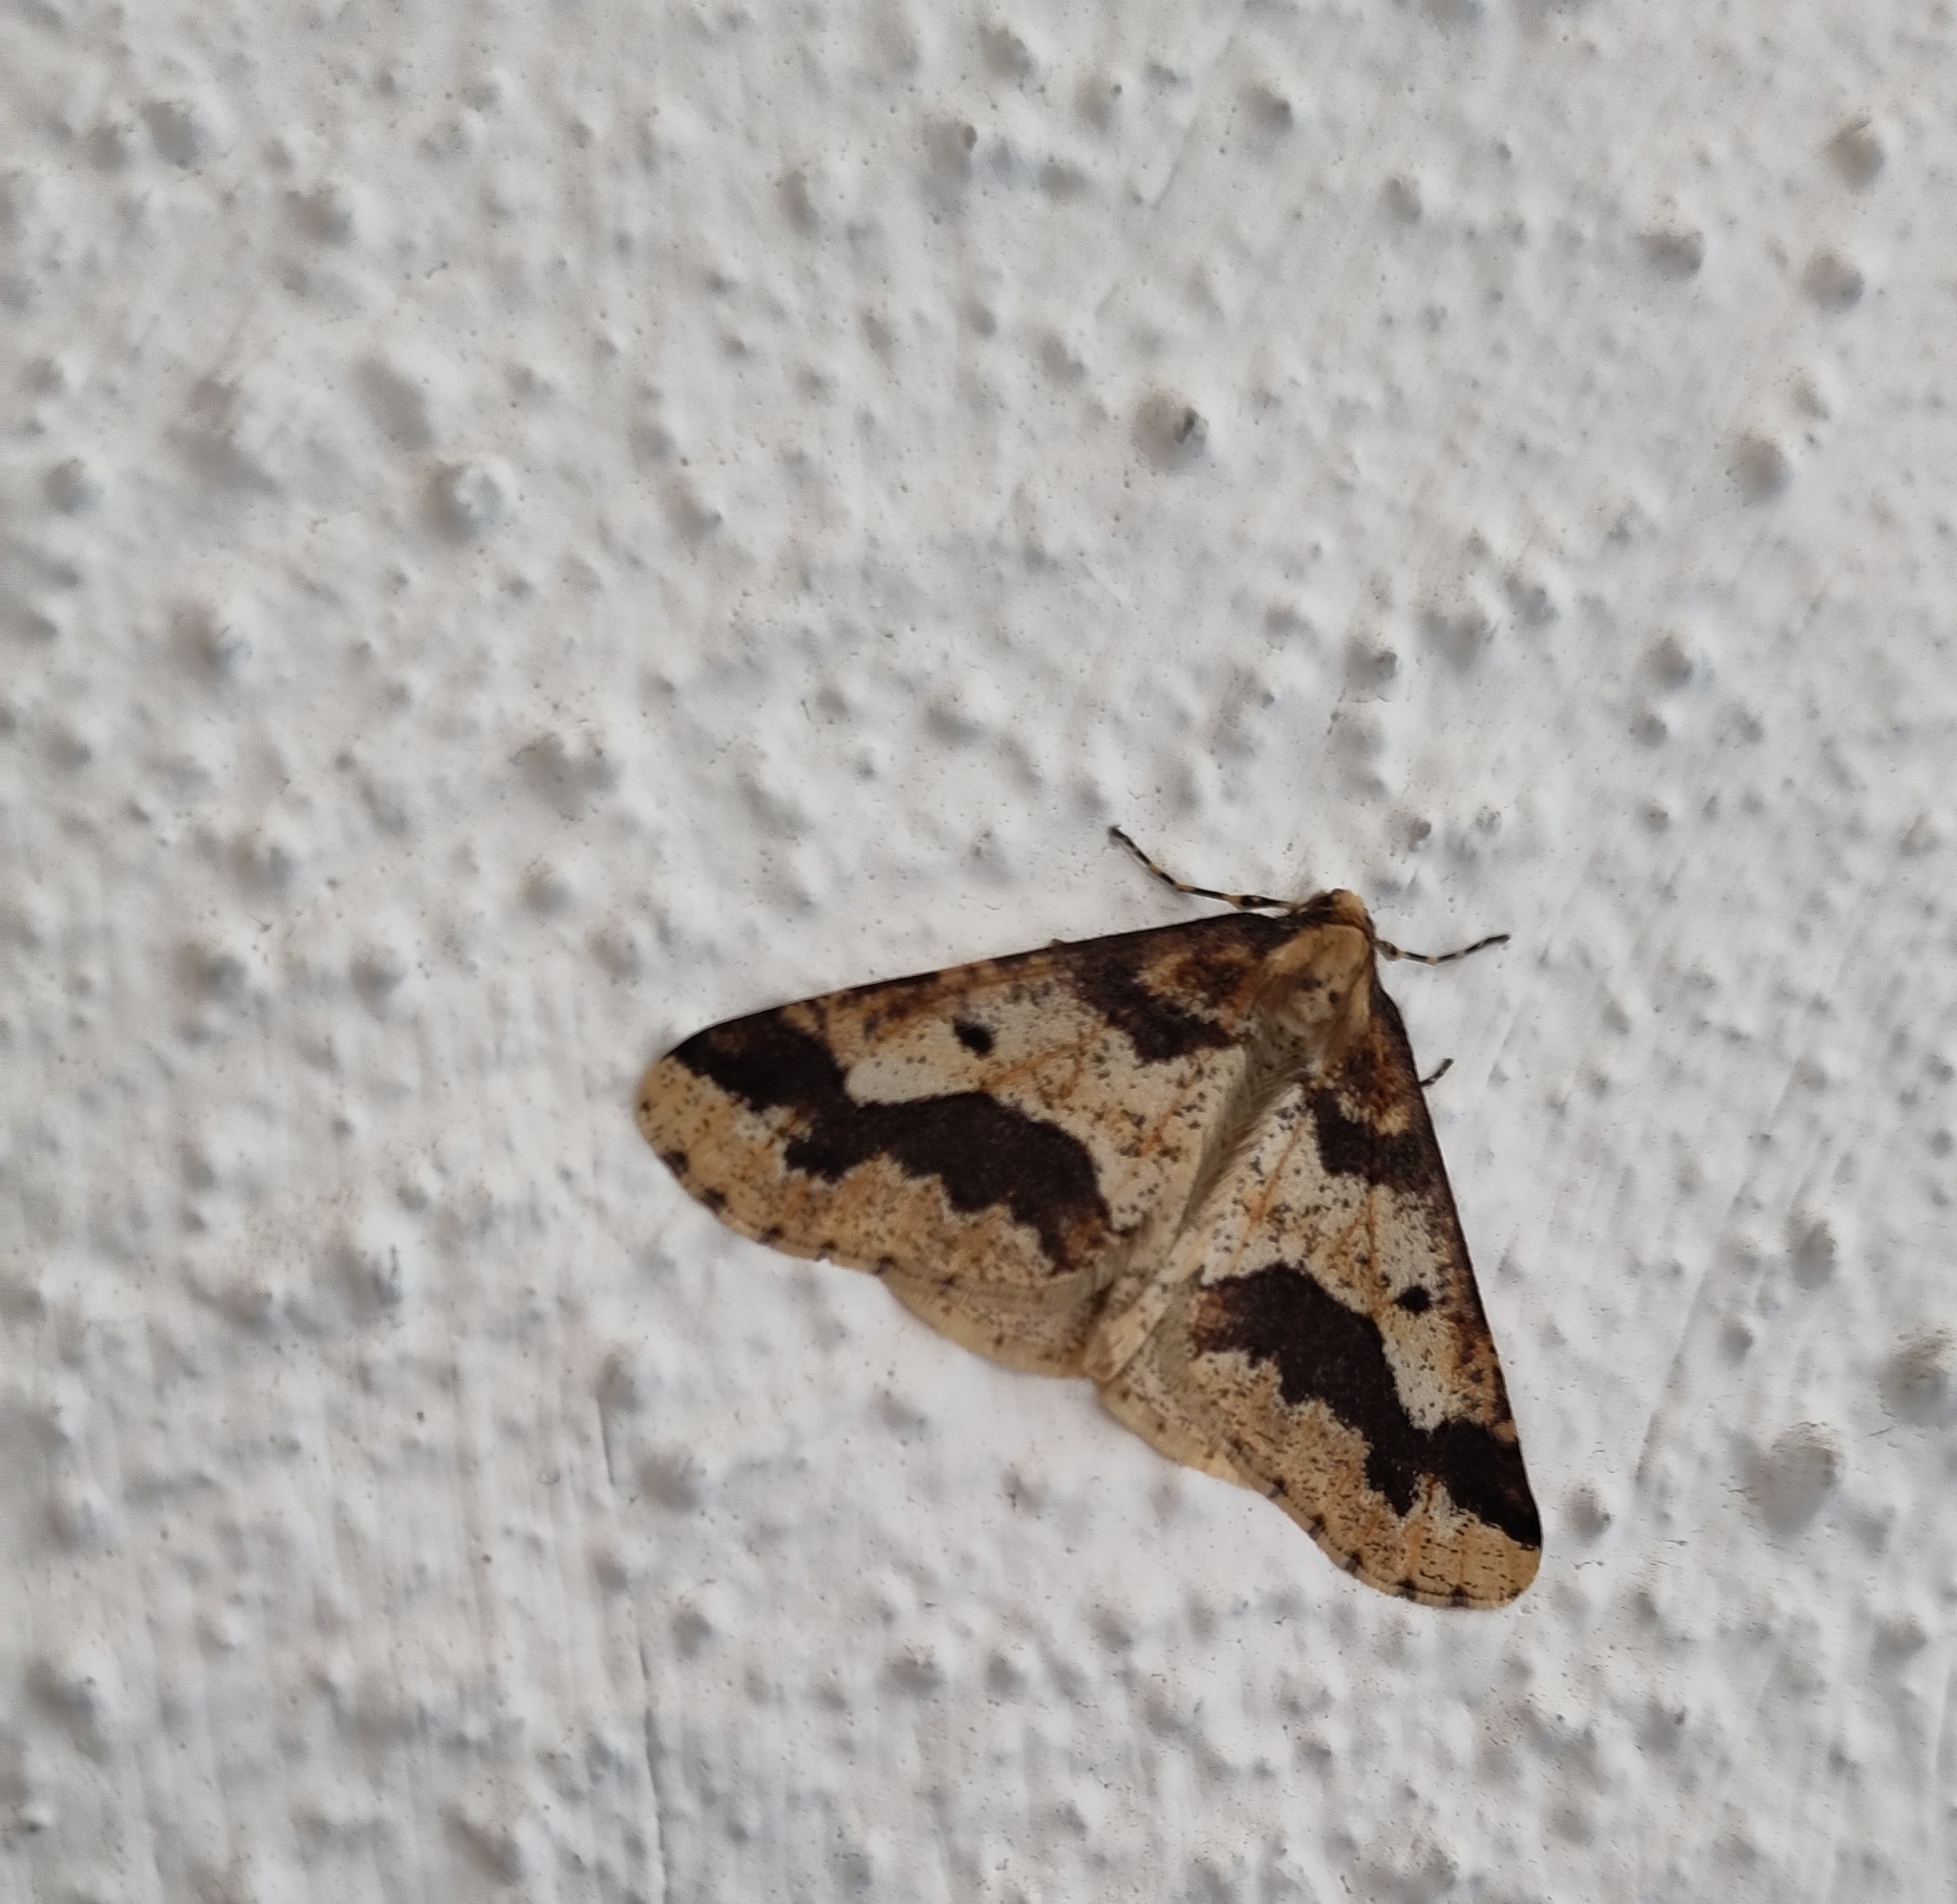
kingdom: Animalia
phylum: Arthropoda
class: Insecta
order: Lepidoptera
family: Geometridae
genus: Erannis
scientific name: Erannis defoliaria
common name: Mottled umber
